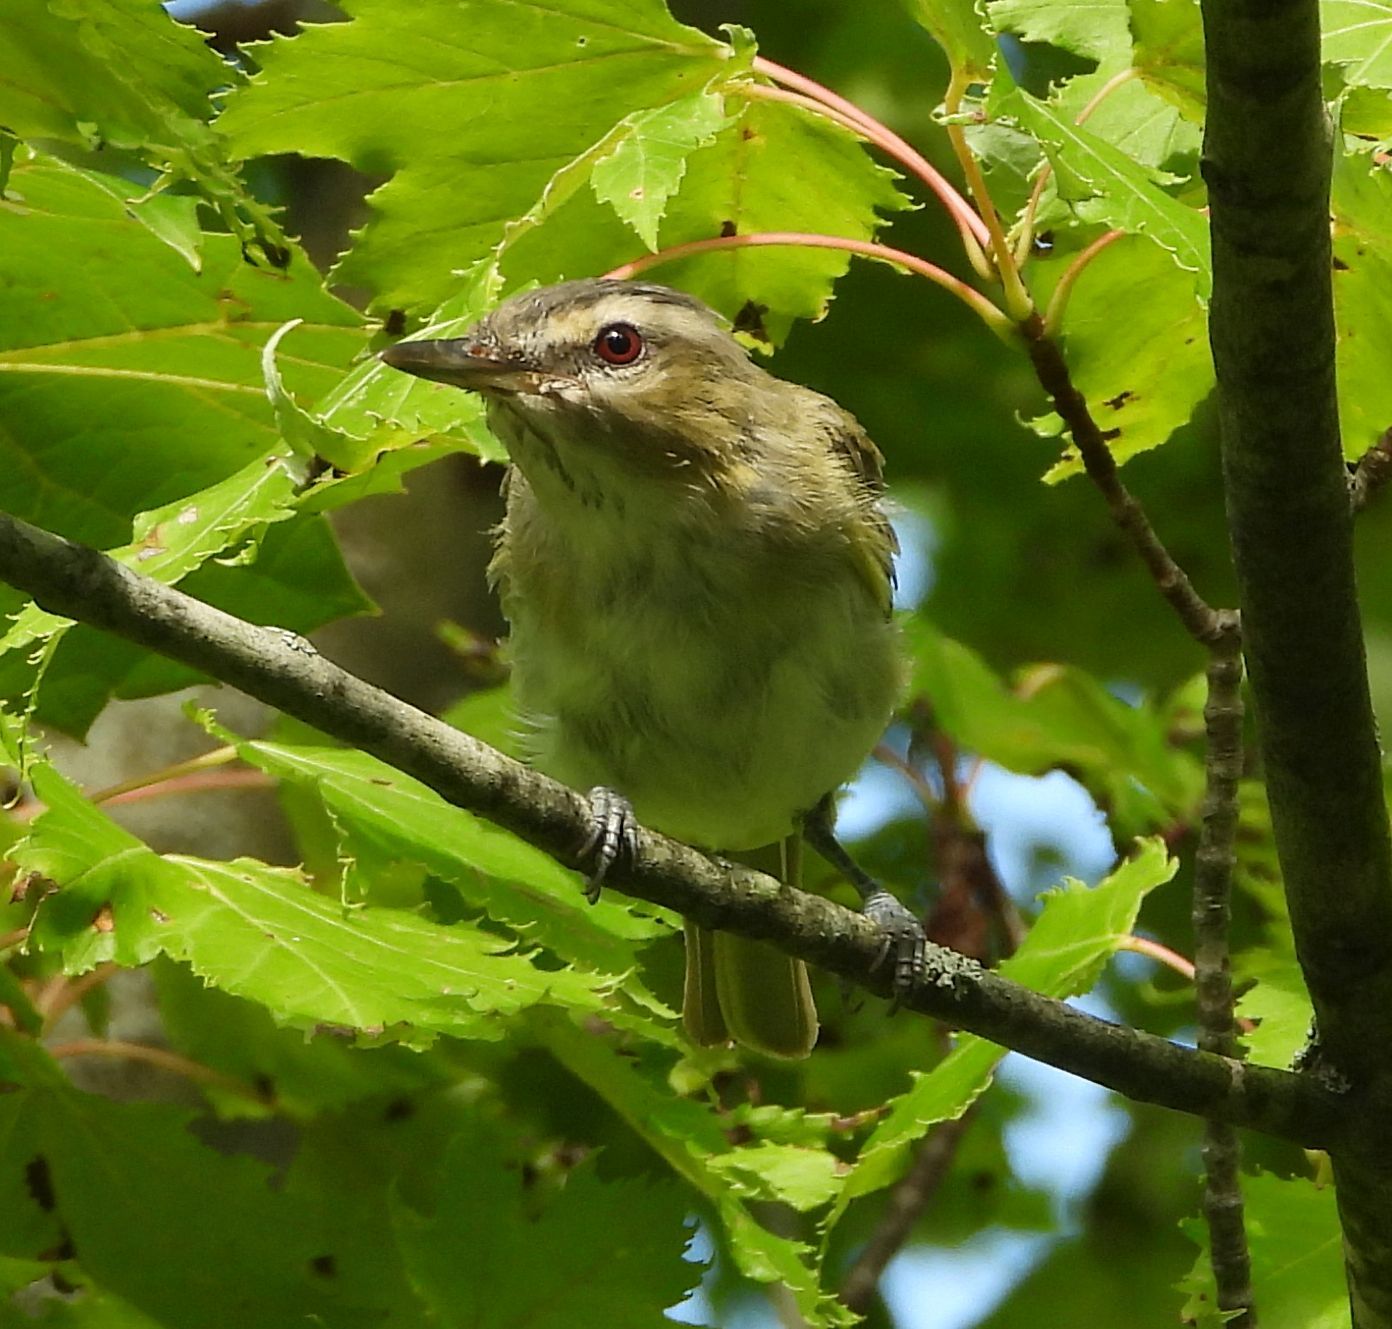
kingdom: Animalia
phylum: Chordata
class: Aves
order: Passeriformes
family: Vireonidae
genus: Vireo
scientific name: Vireo olivaceus
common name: Red-eyed vireo
